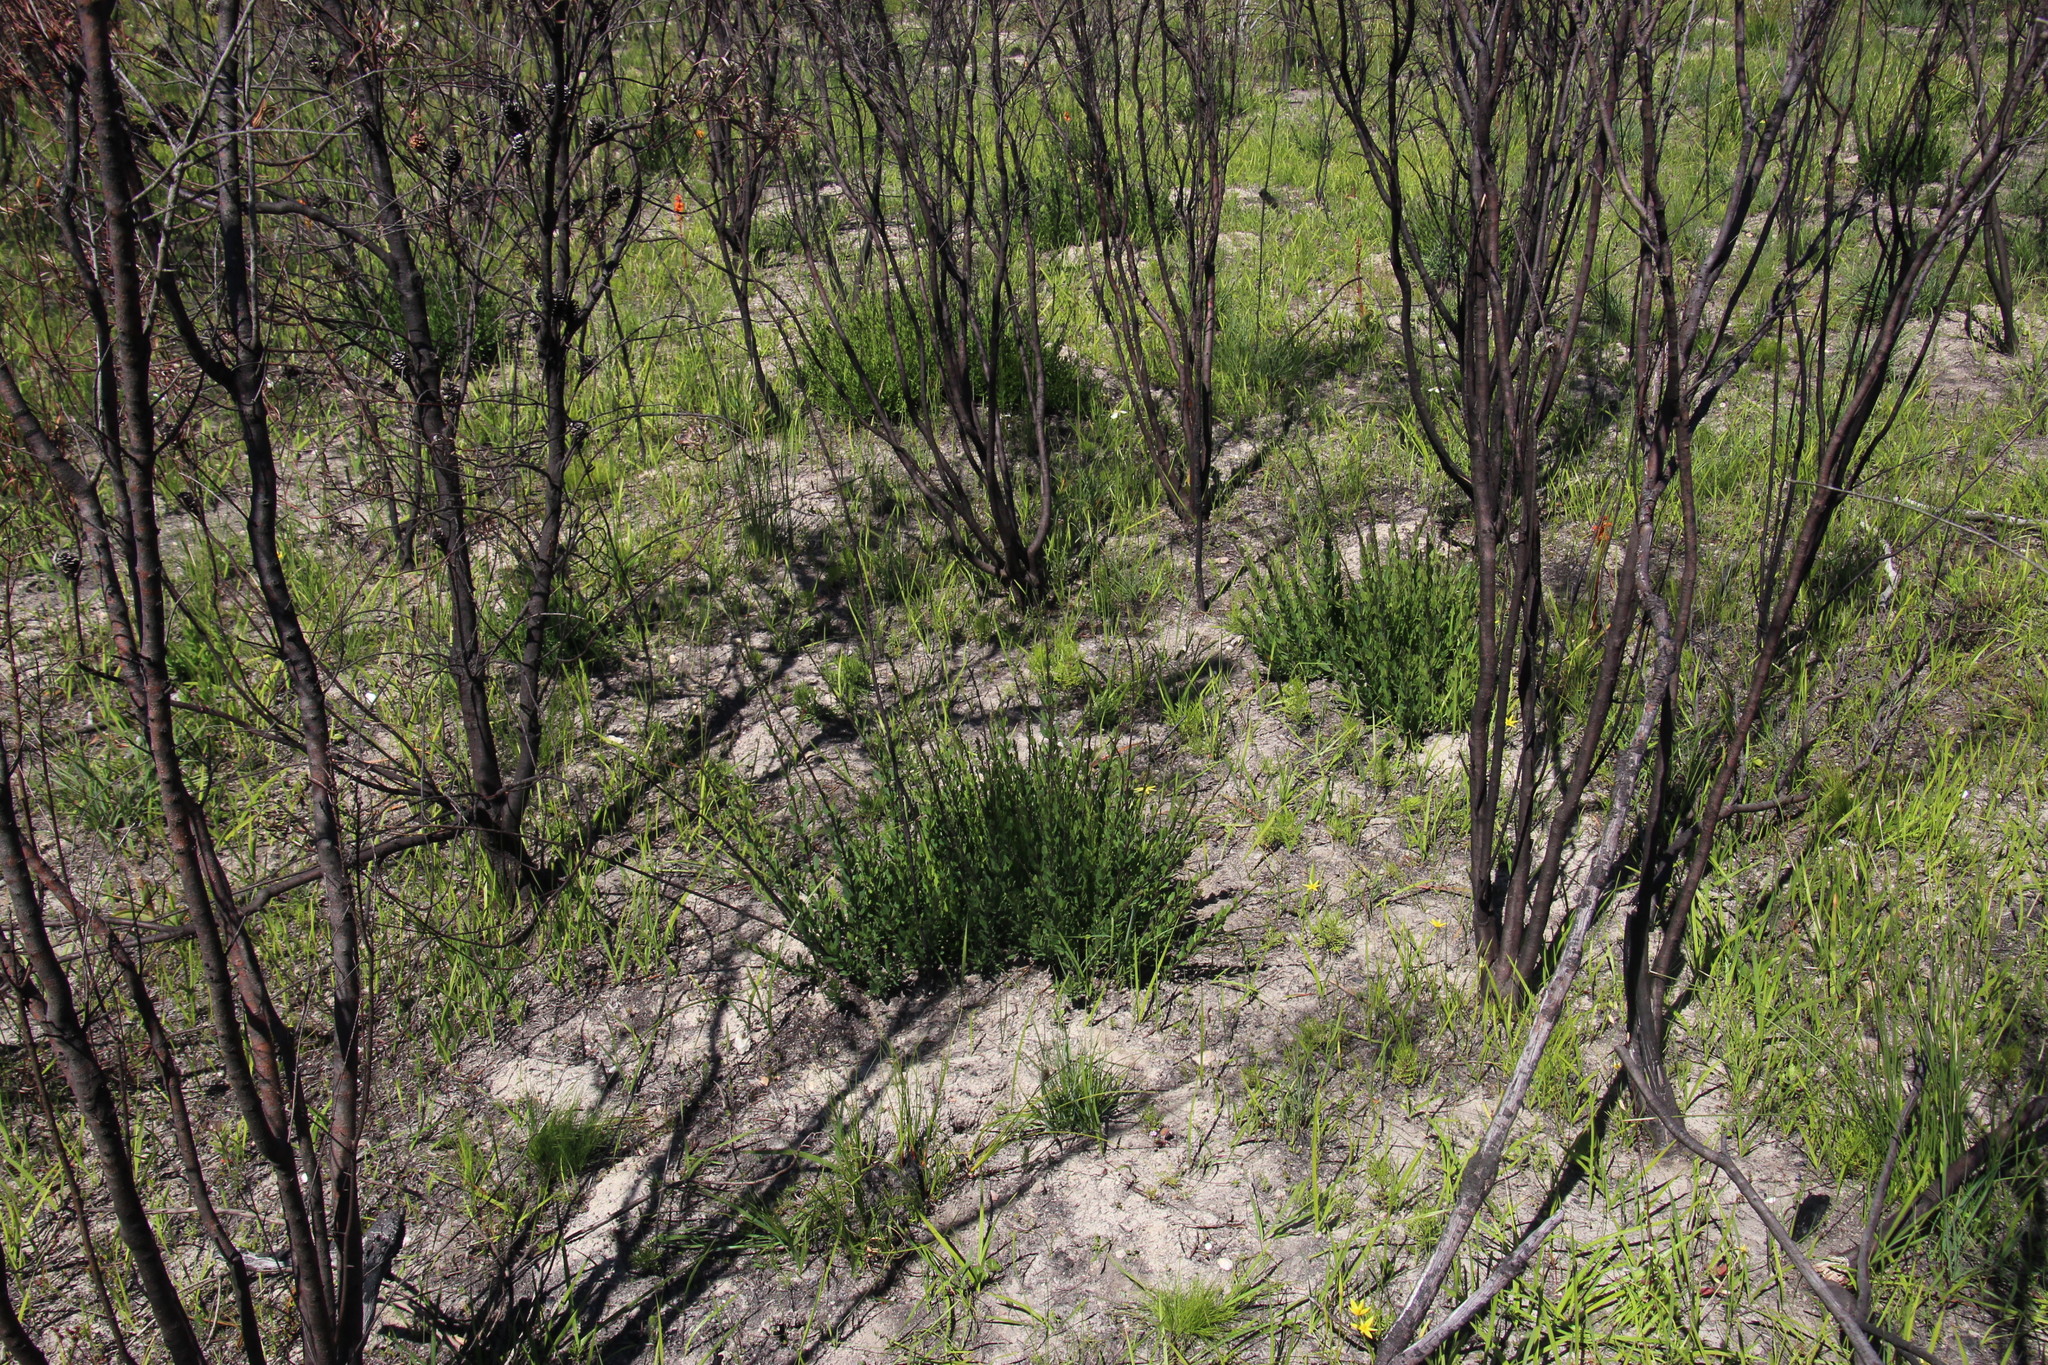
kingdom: Plantae
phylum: Tracheophyta
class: Magnoliopsida
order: Lamiales
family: Scrophulariaceae
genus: Freylinia
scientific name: Freylinia longiflora
